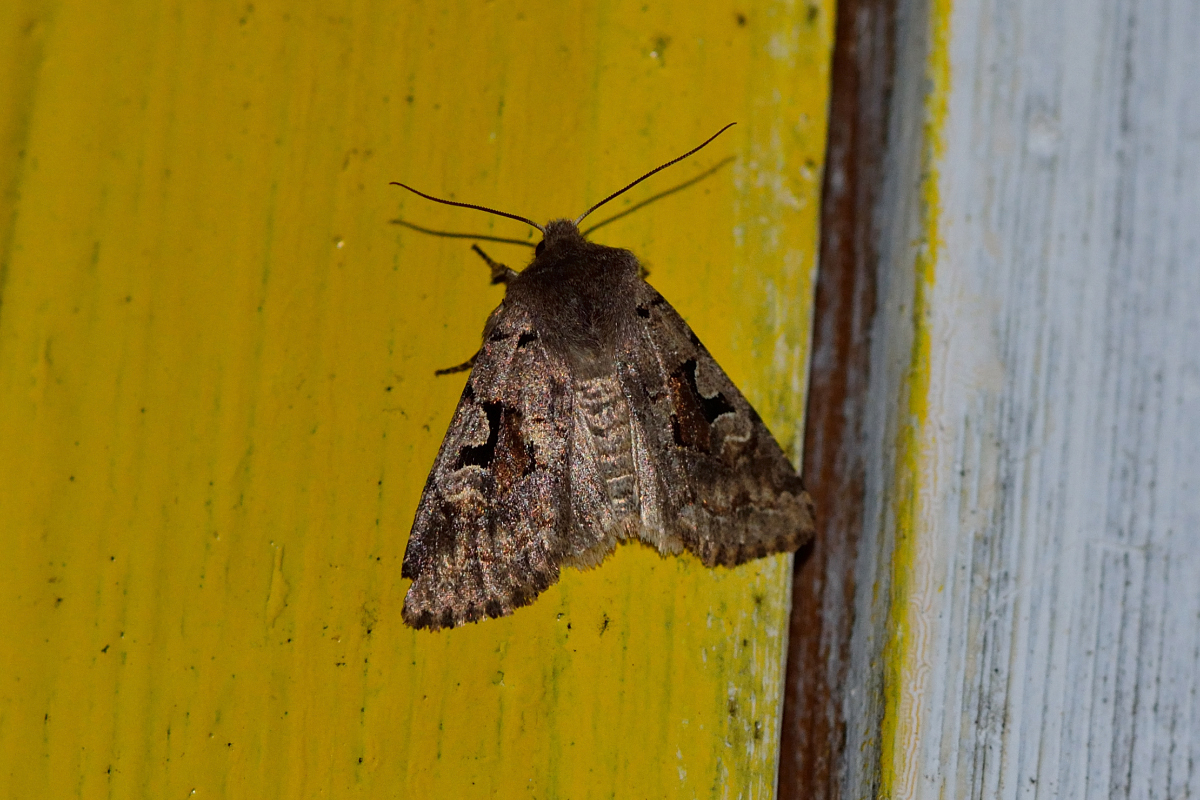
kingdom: Animalia
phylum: Arthropoda
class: Insecta
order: Lepidoptera
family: Noctuidae
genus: Orthosia
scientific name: Orthosia gothica
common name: Hebrew character
